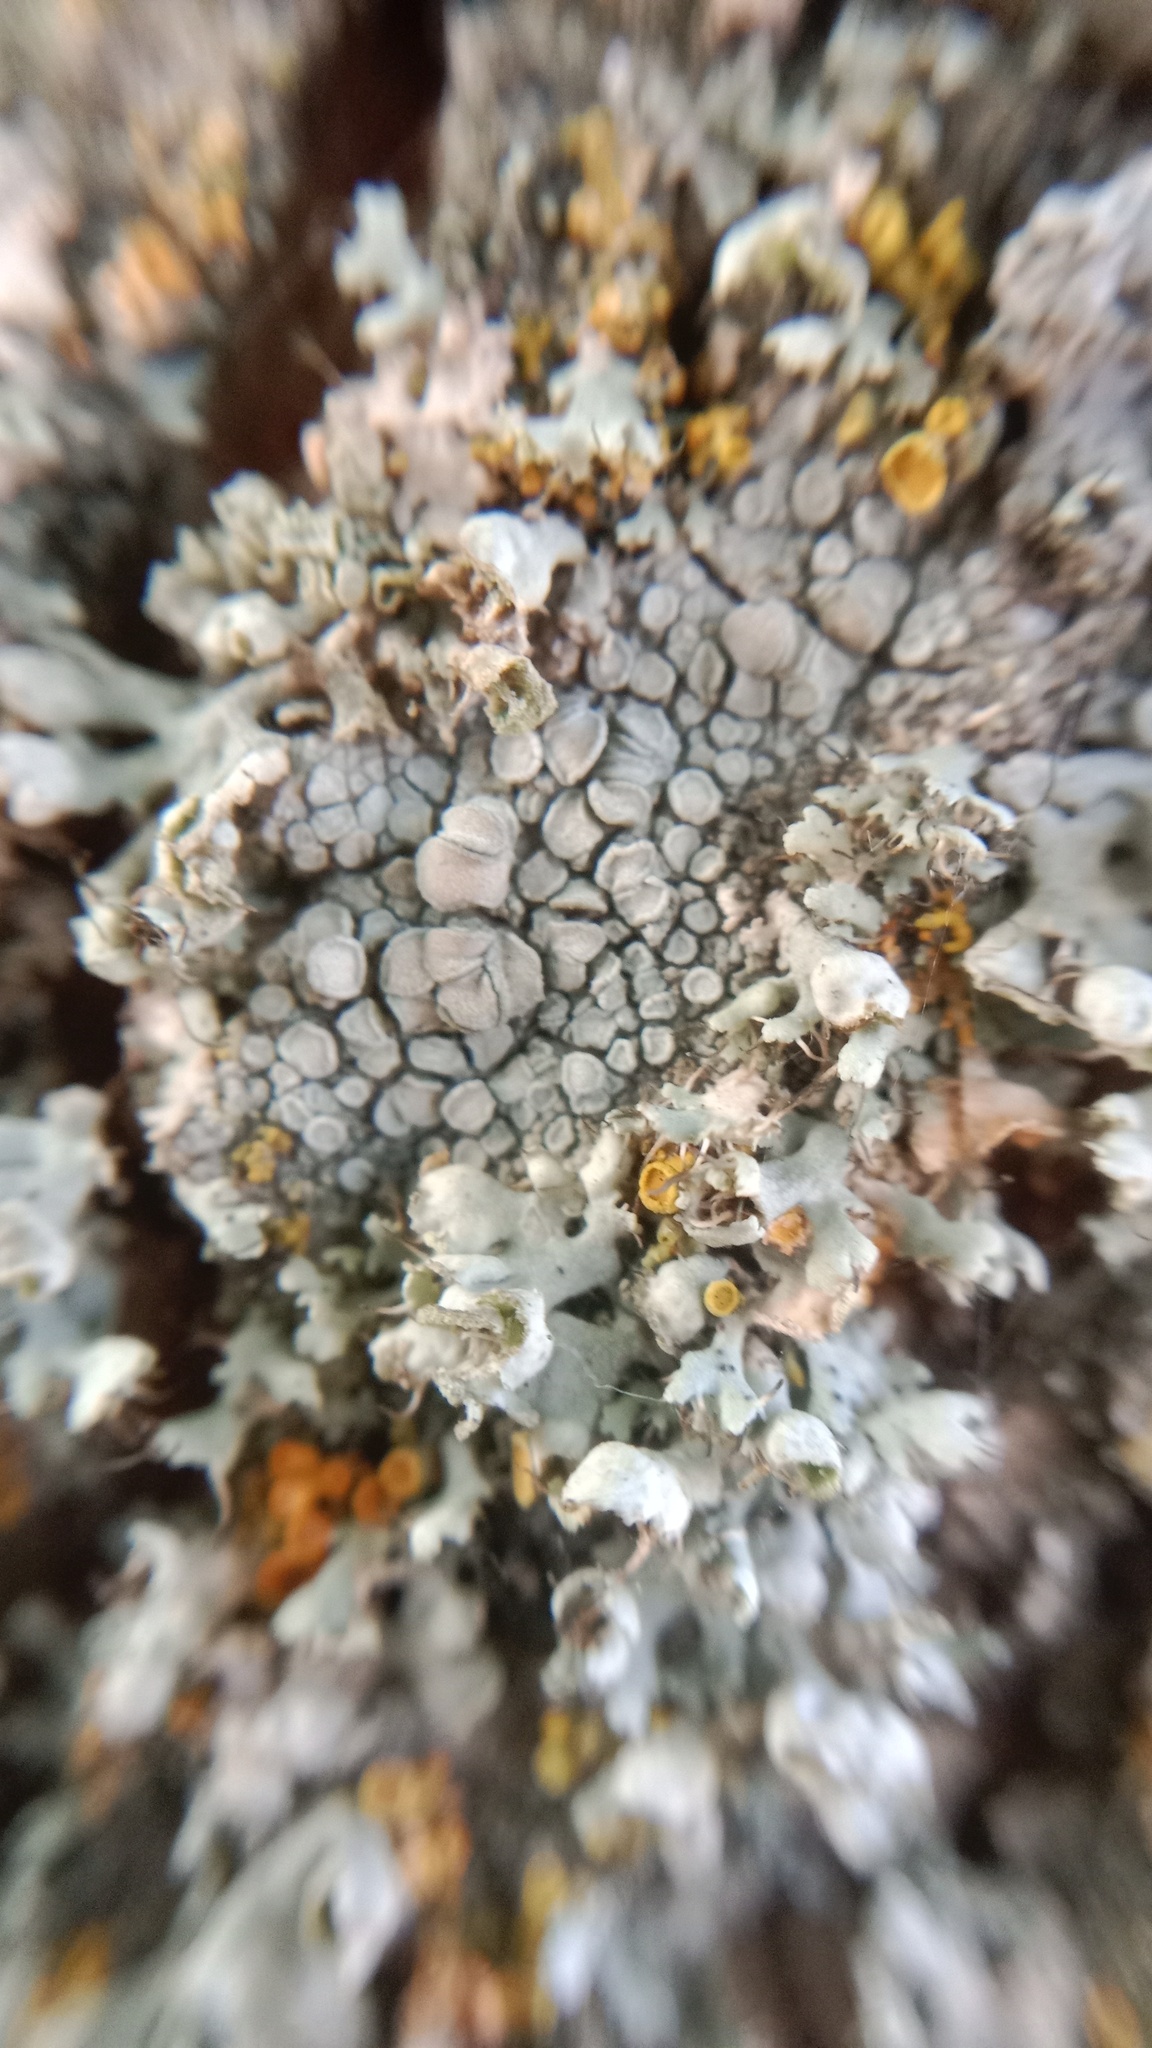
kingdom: Fungi
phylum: Ascomycota
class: Lecanoromycetes
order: Lecanorales
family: Lecanoraceae
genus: Glaucomaria
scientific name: Glaucomaria carpinea
